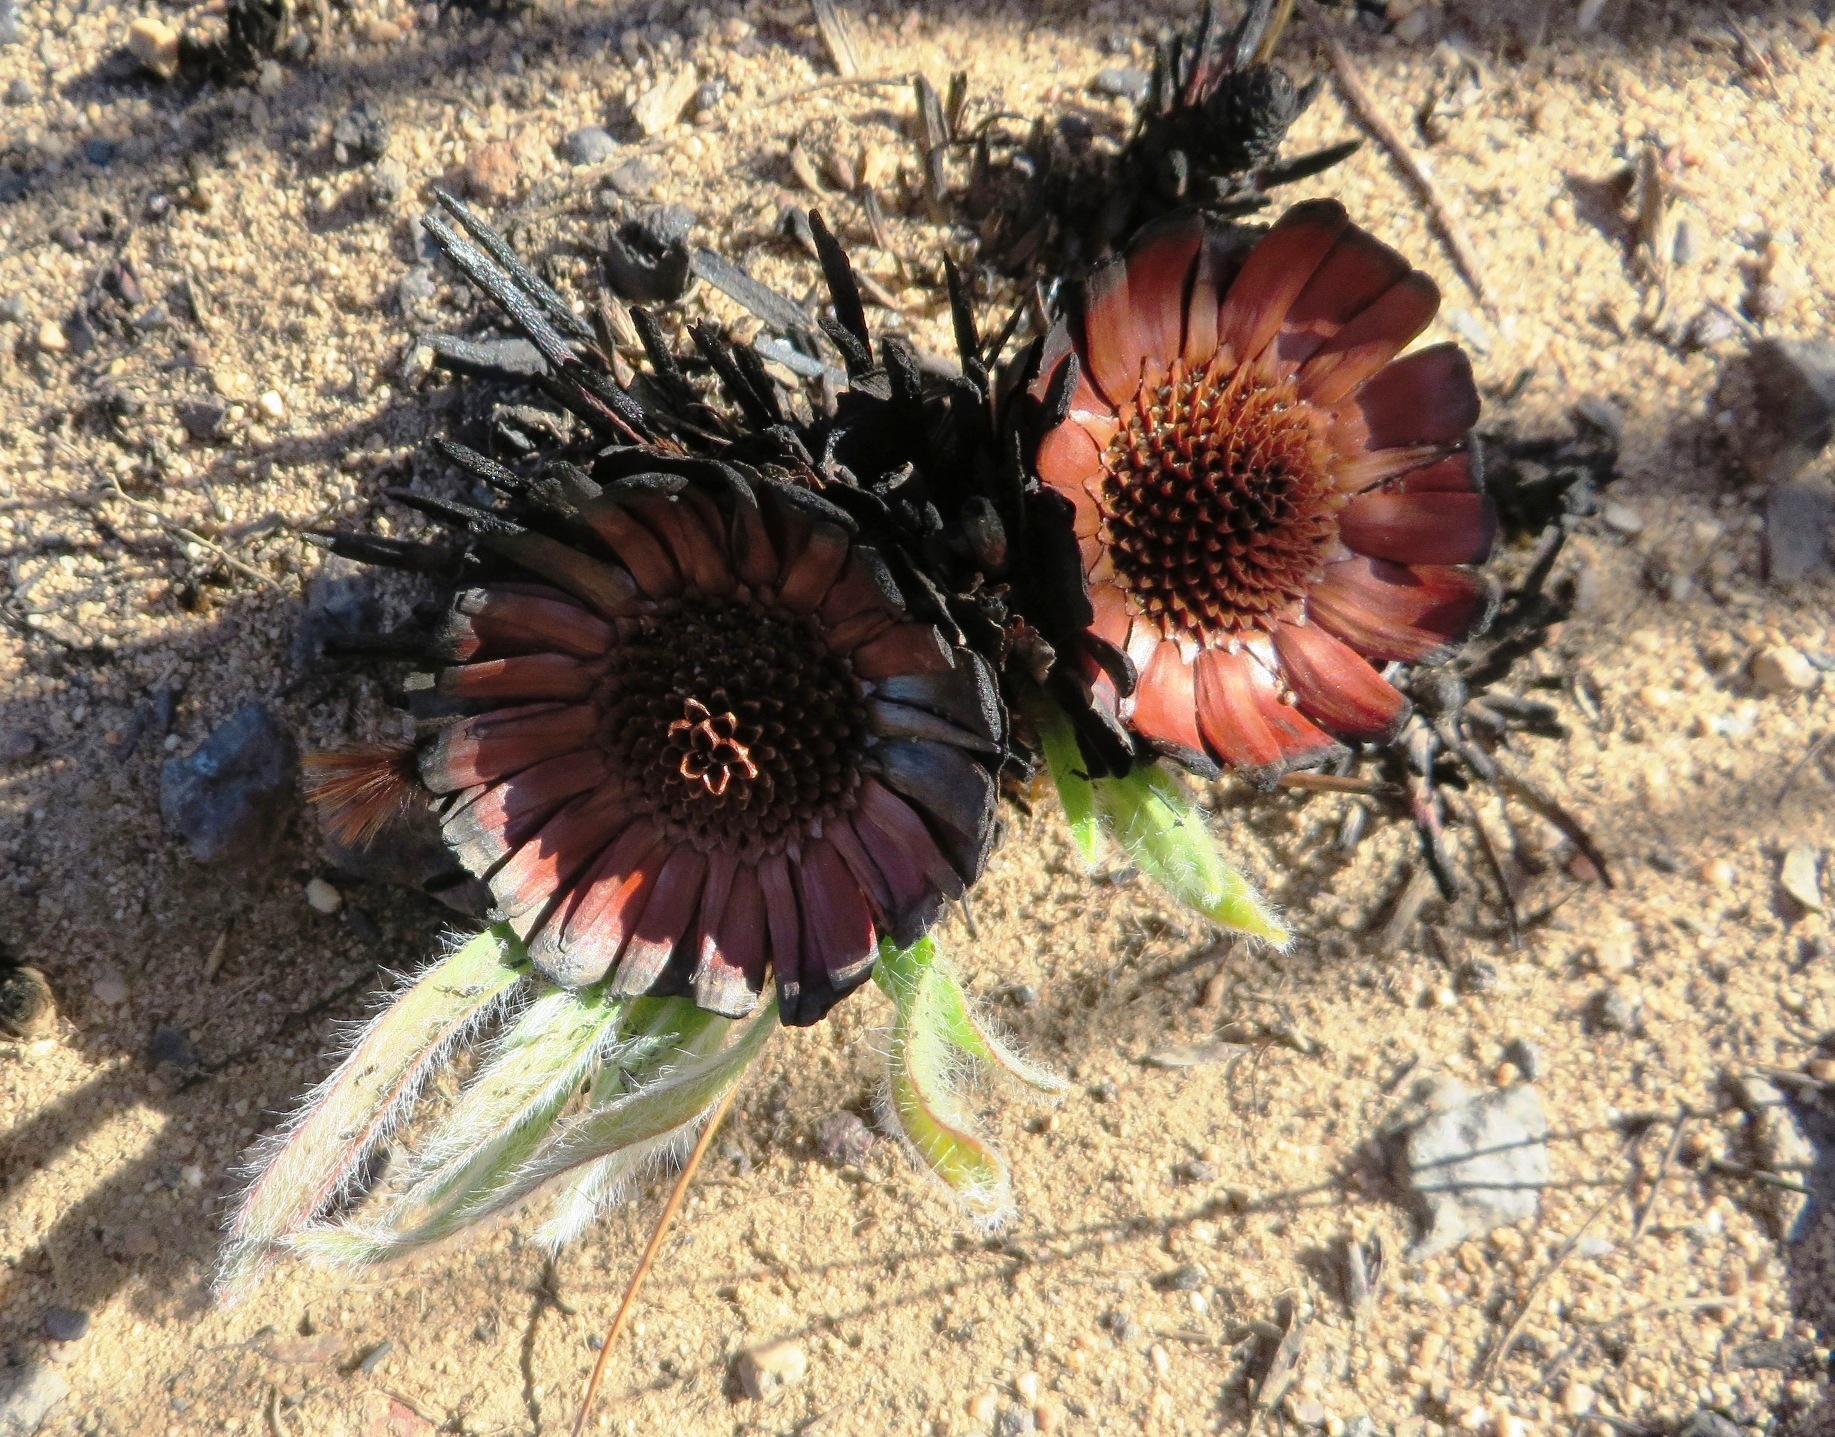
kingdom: Plantae
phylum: Tracheophyta
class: Magnoliopsida
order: Proteales
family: Proteaceae
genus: Protea
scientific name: Protea scabra
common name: Sandpaper-leaf sugarbush
